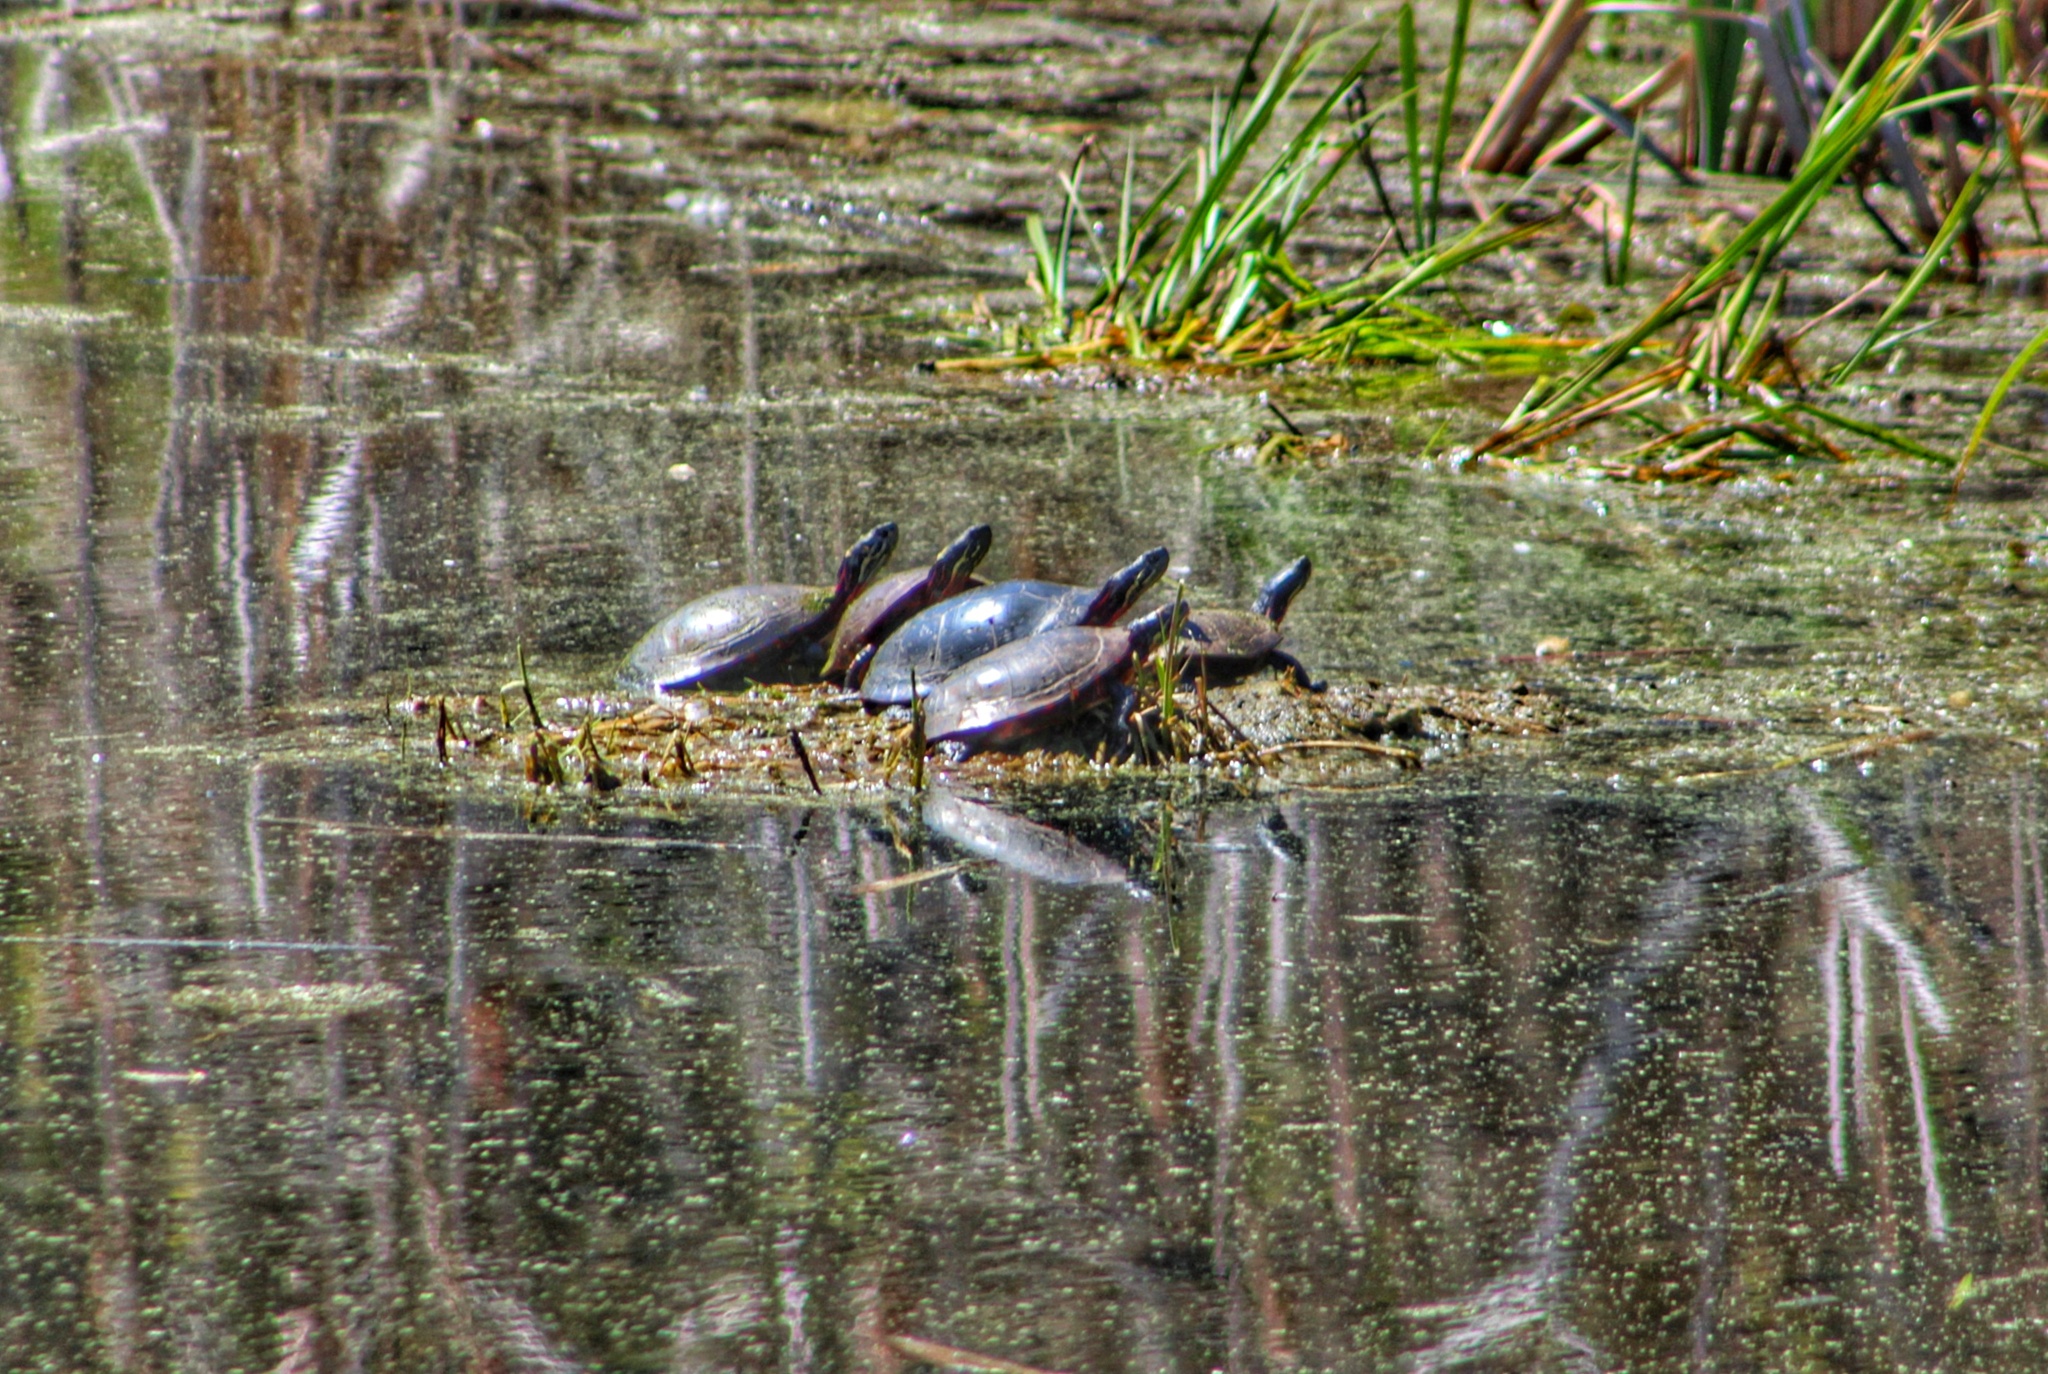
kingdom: Animalia
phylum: Chordata
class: Testudines
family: Emydidae
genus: Chrysemys
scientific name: Chrysemys picta
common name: Painted turtle
